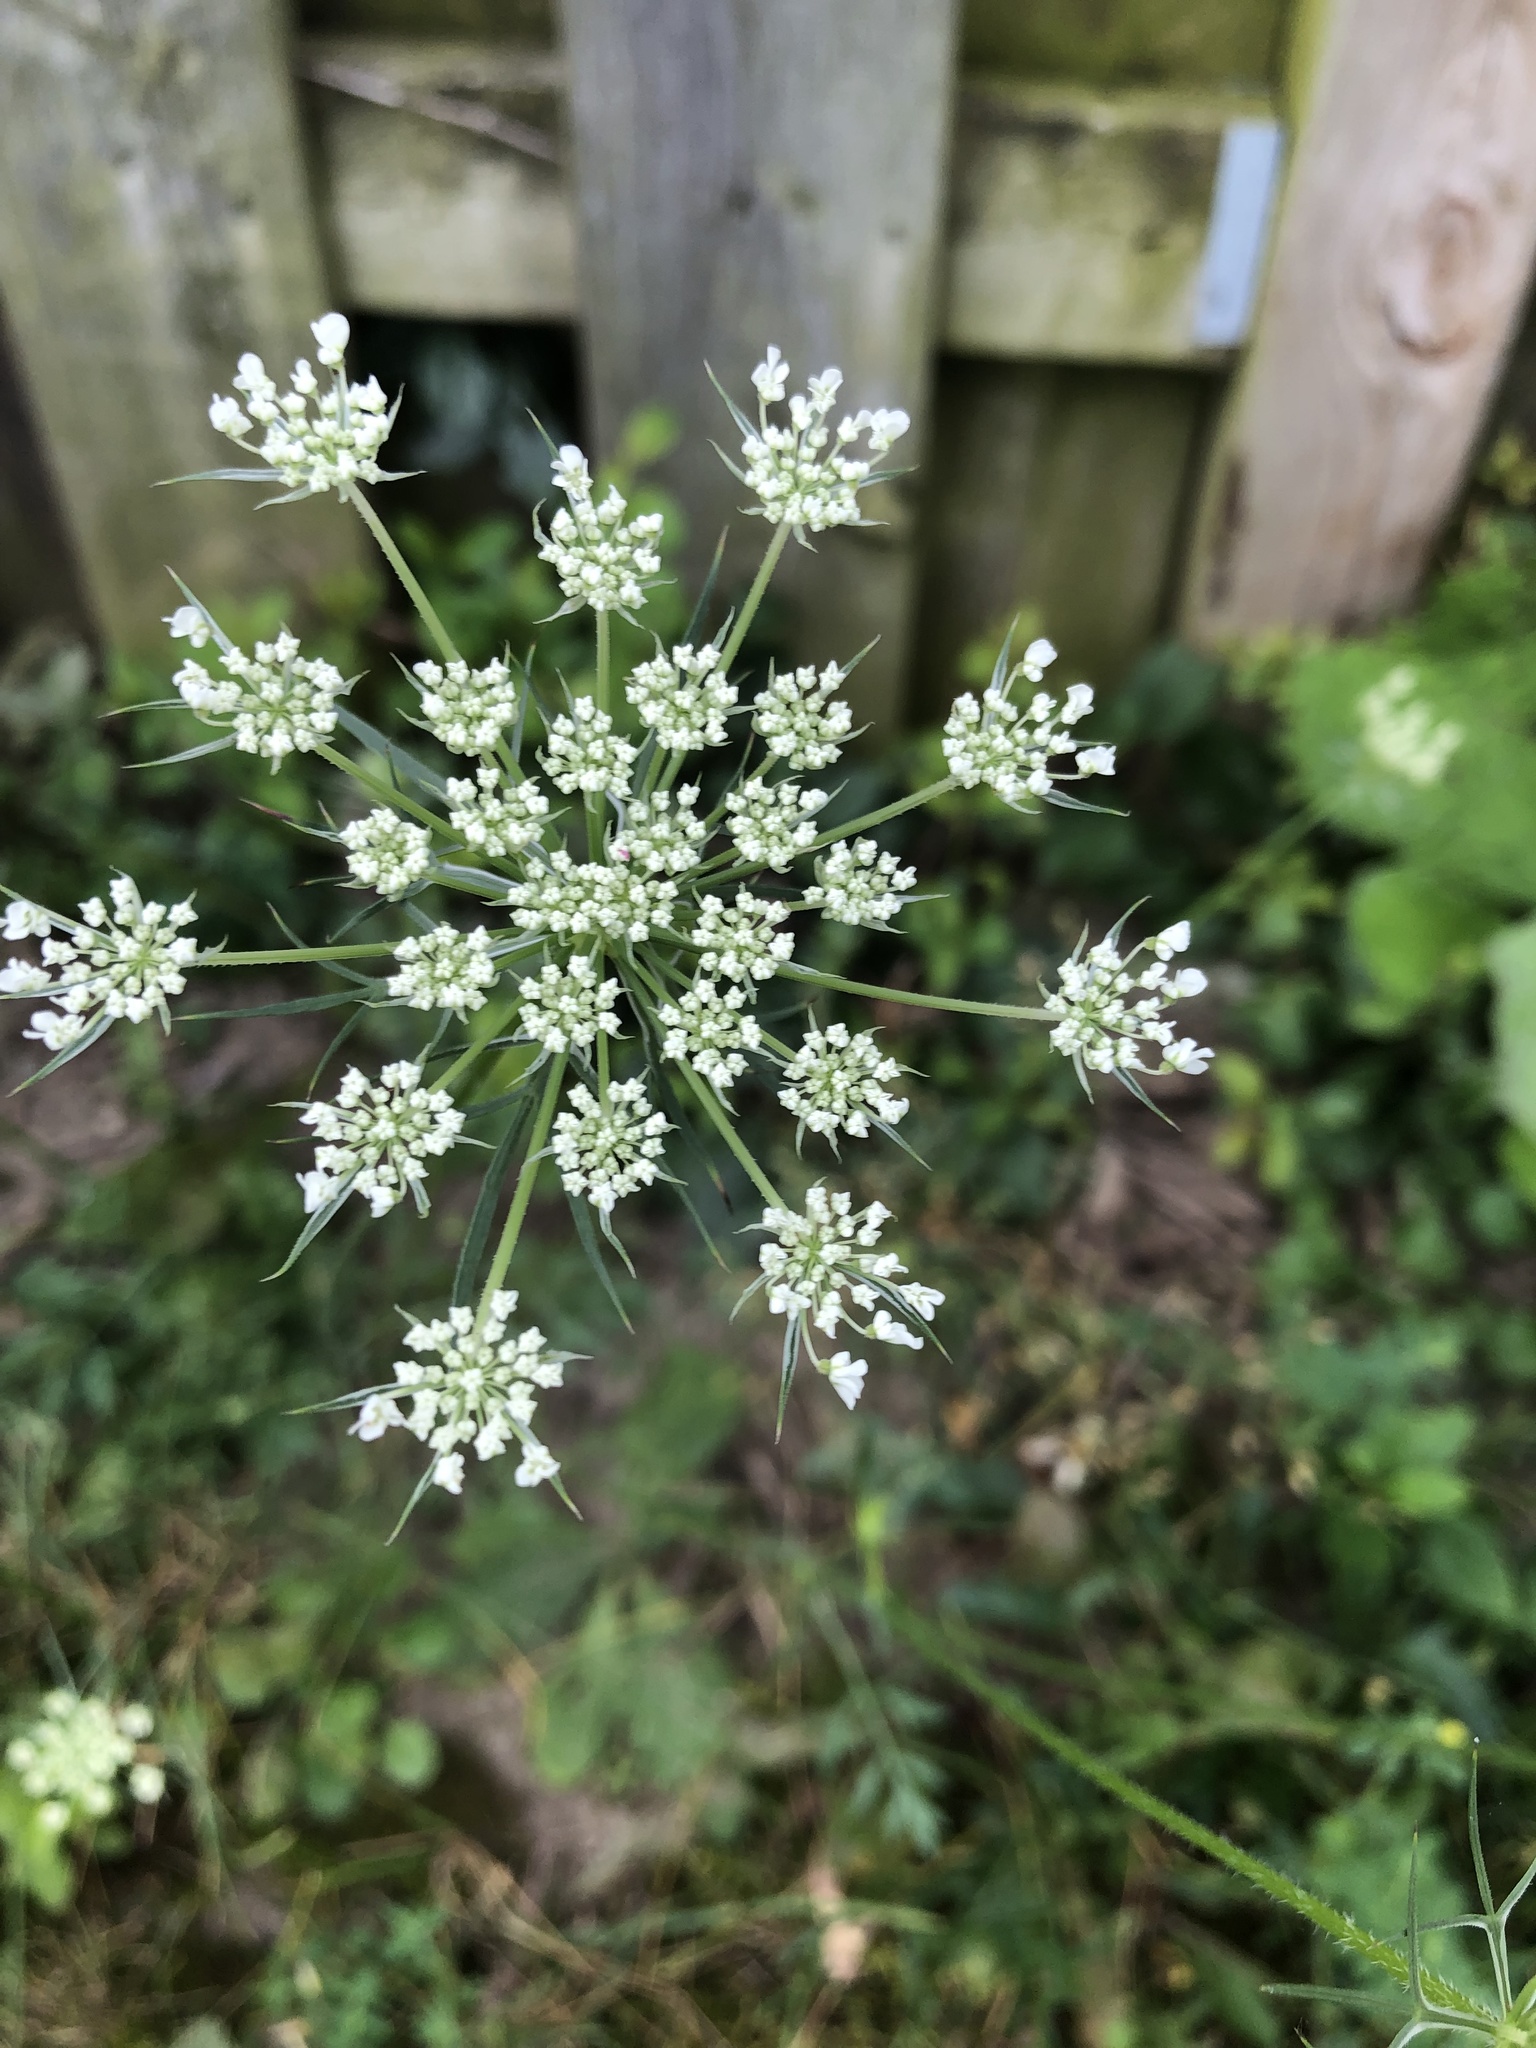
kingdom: Plantae
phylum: Tracheophyta
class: Magnoliopsida
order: Apiales
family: Apiaceae
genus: Daucus
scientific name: Daucus carota
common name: Wild carrot
